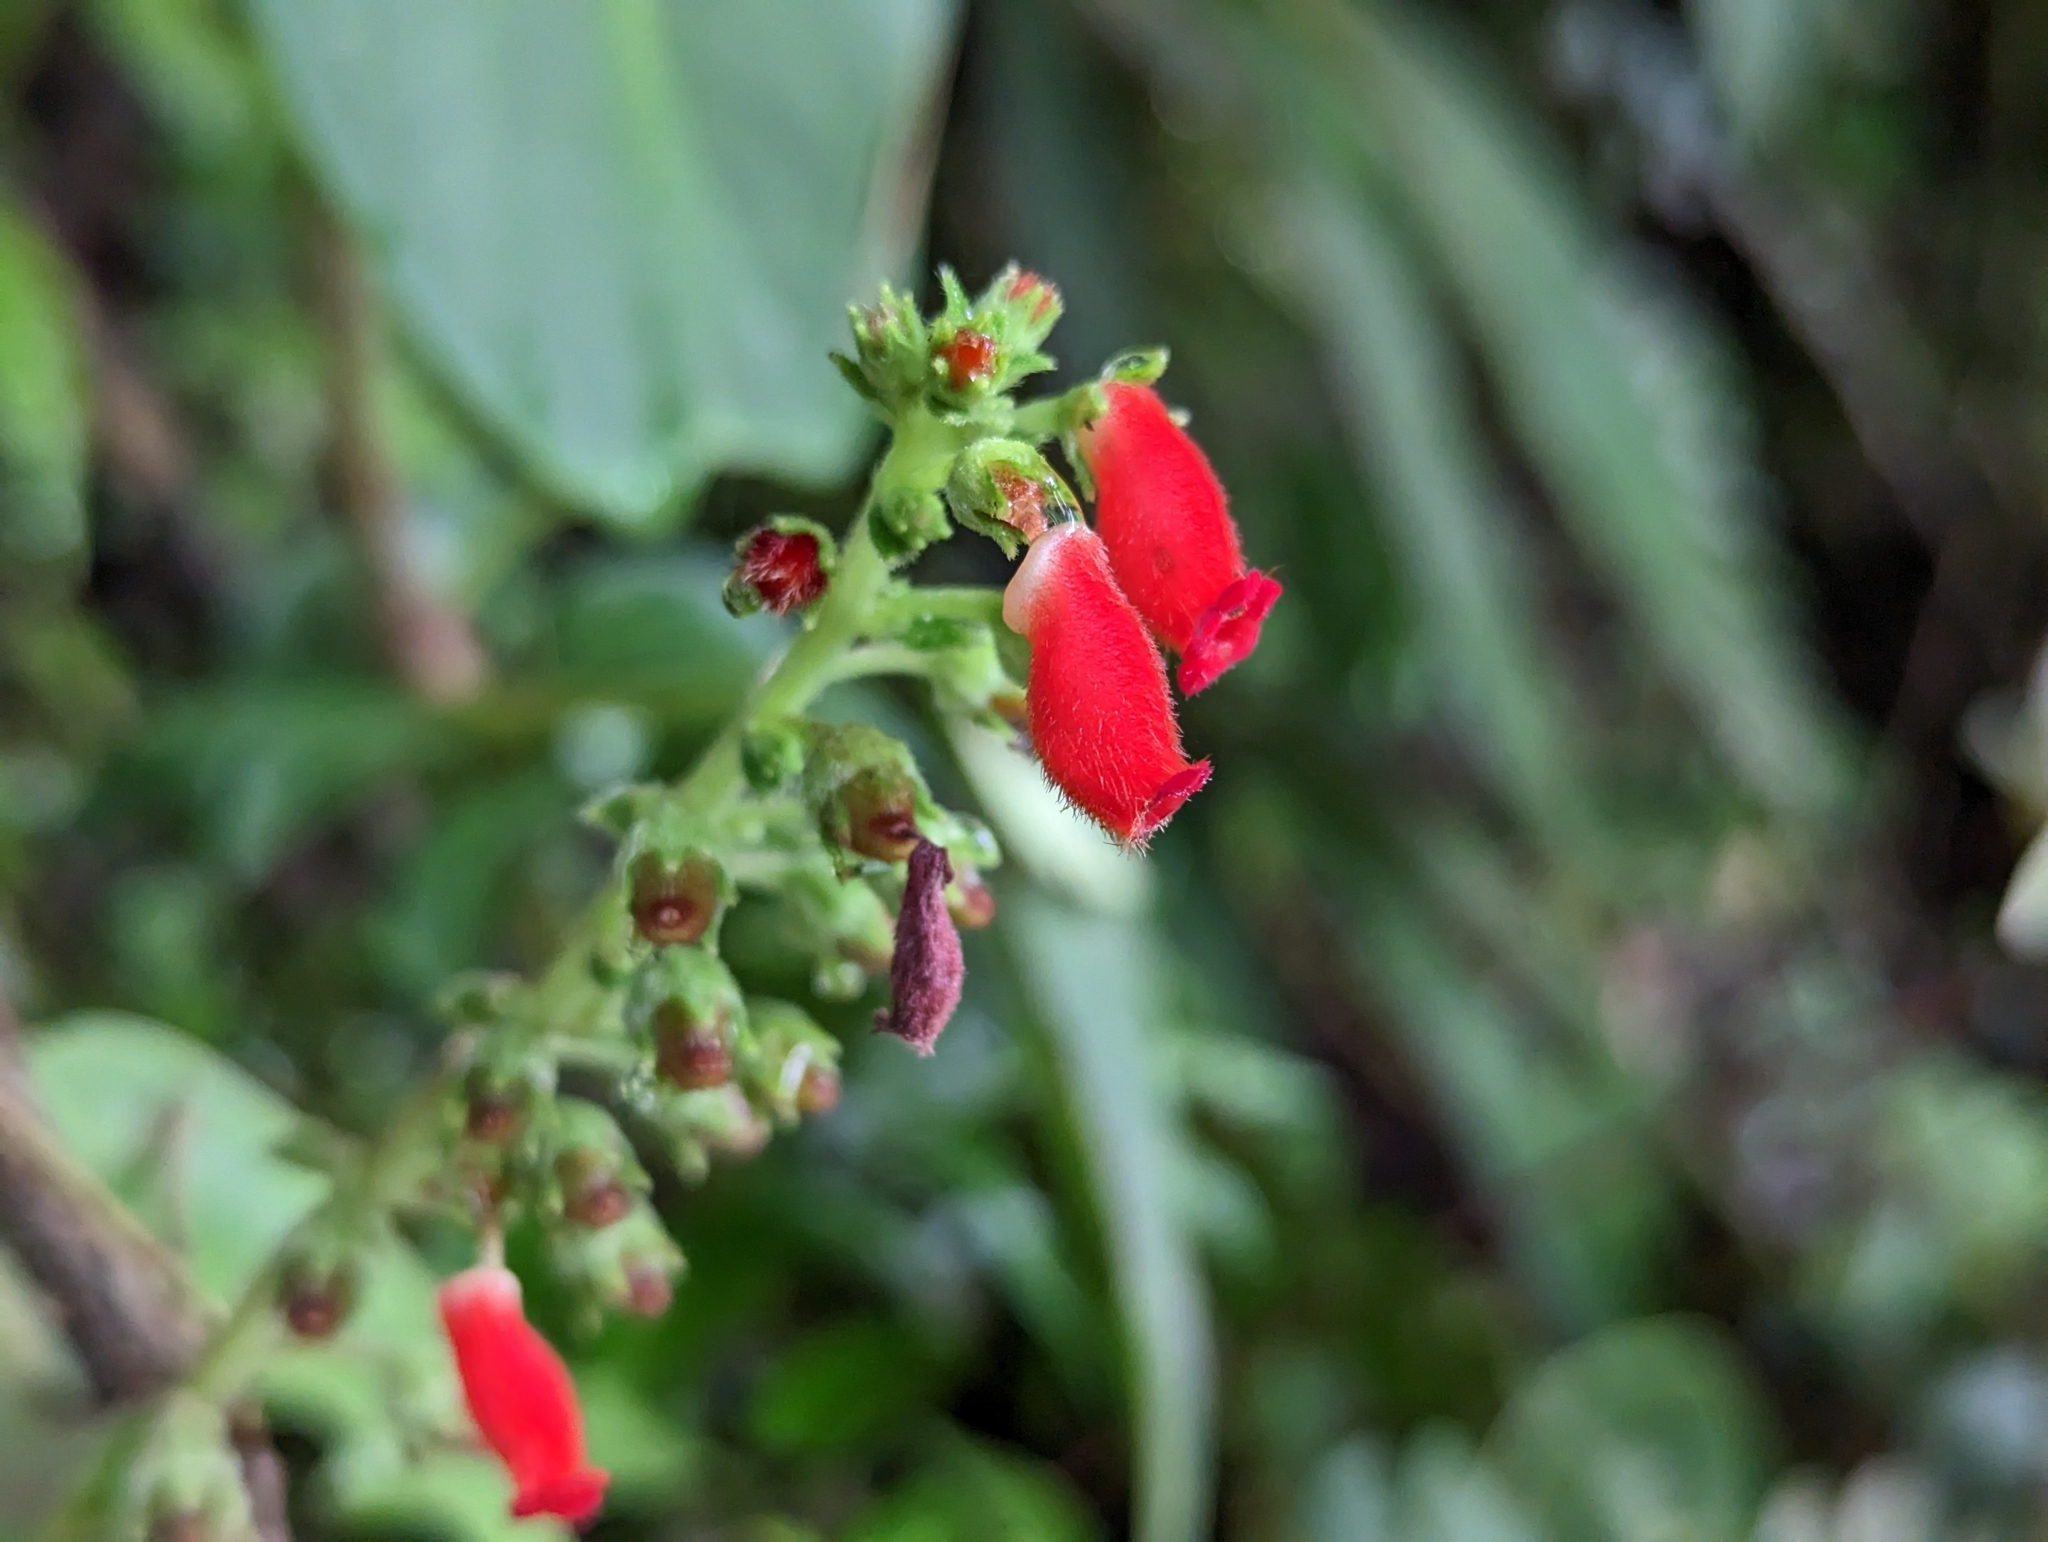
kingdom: Plantae
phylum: Tracheophyta
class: Magnoliopsida
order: Lamiales
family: Gesneriaceae
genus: Kohleria
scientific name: Kohleria spicata
